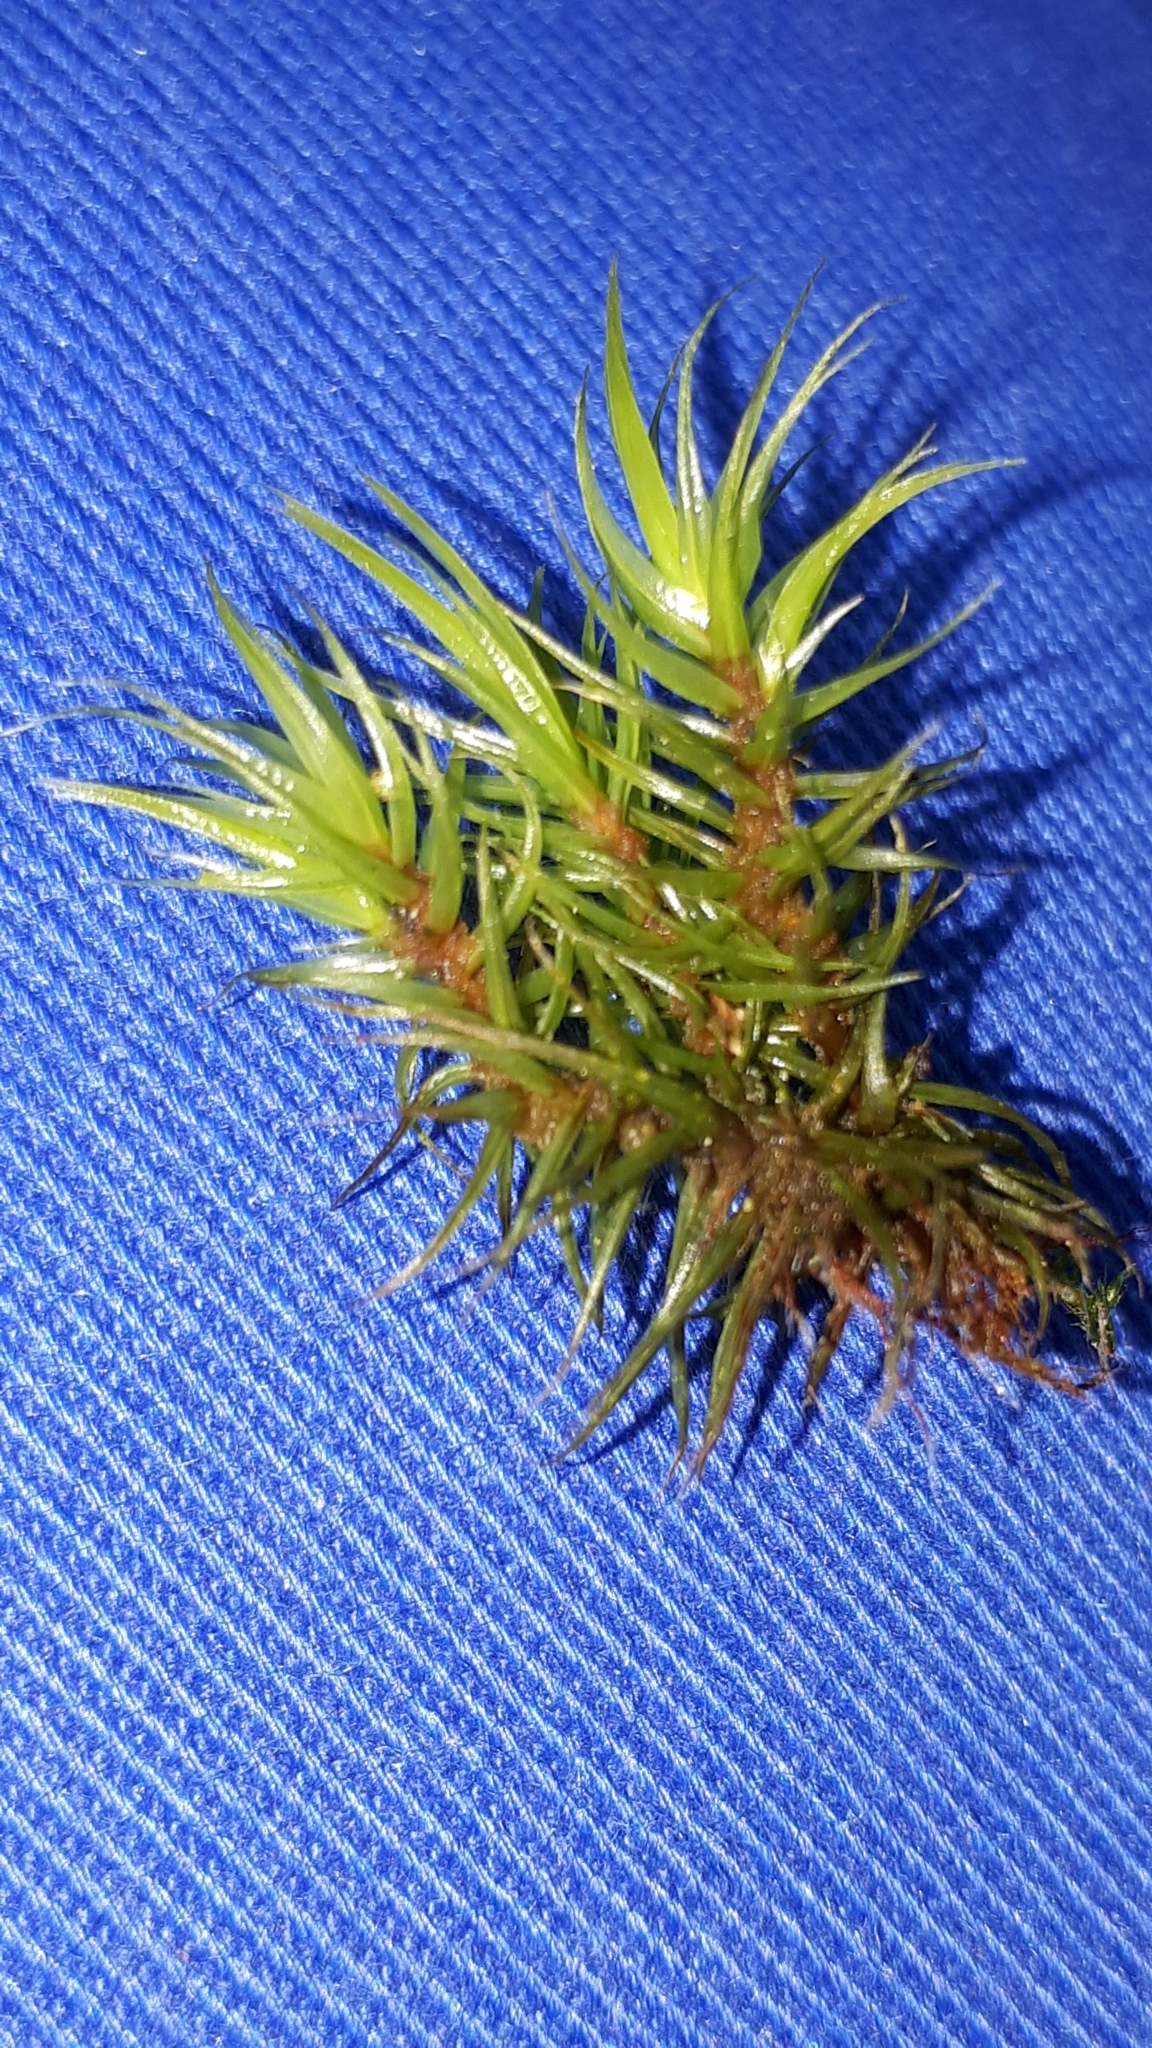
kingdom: Plantae
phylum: Bryophyta
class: Bryopsida
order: Dicranales
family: Dicranaceae
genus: Dicranum
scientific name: Dicranum scoparium
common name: Broom fork-moss
